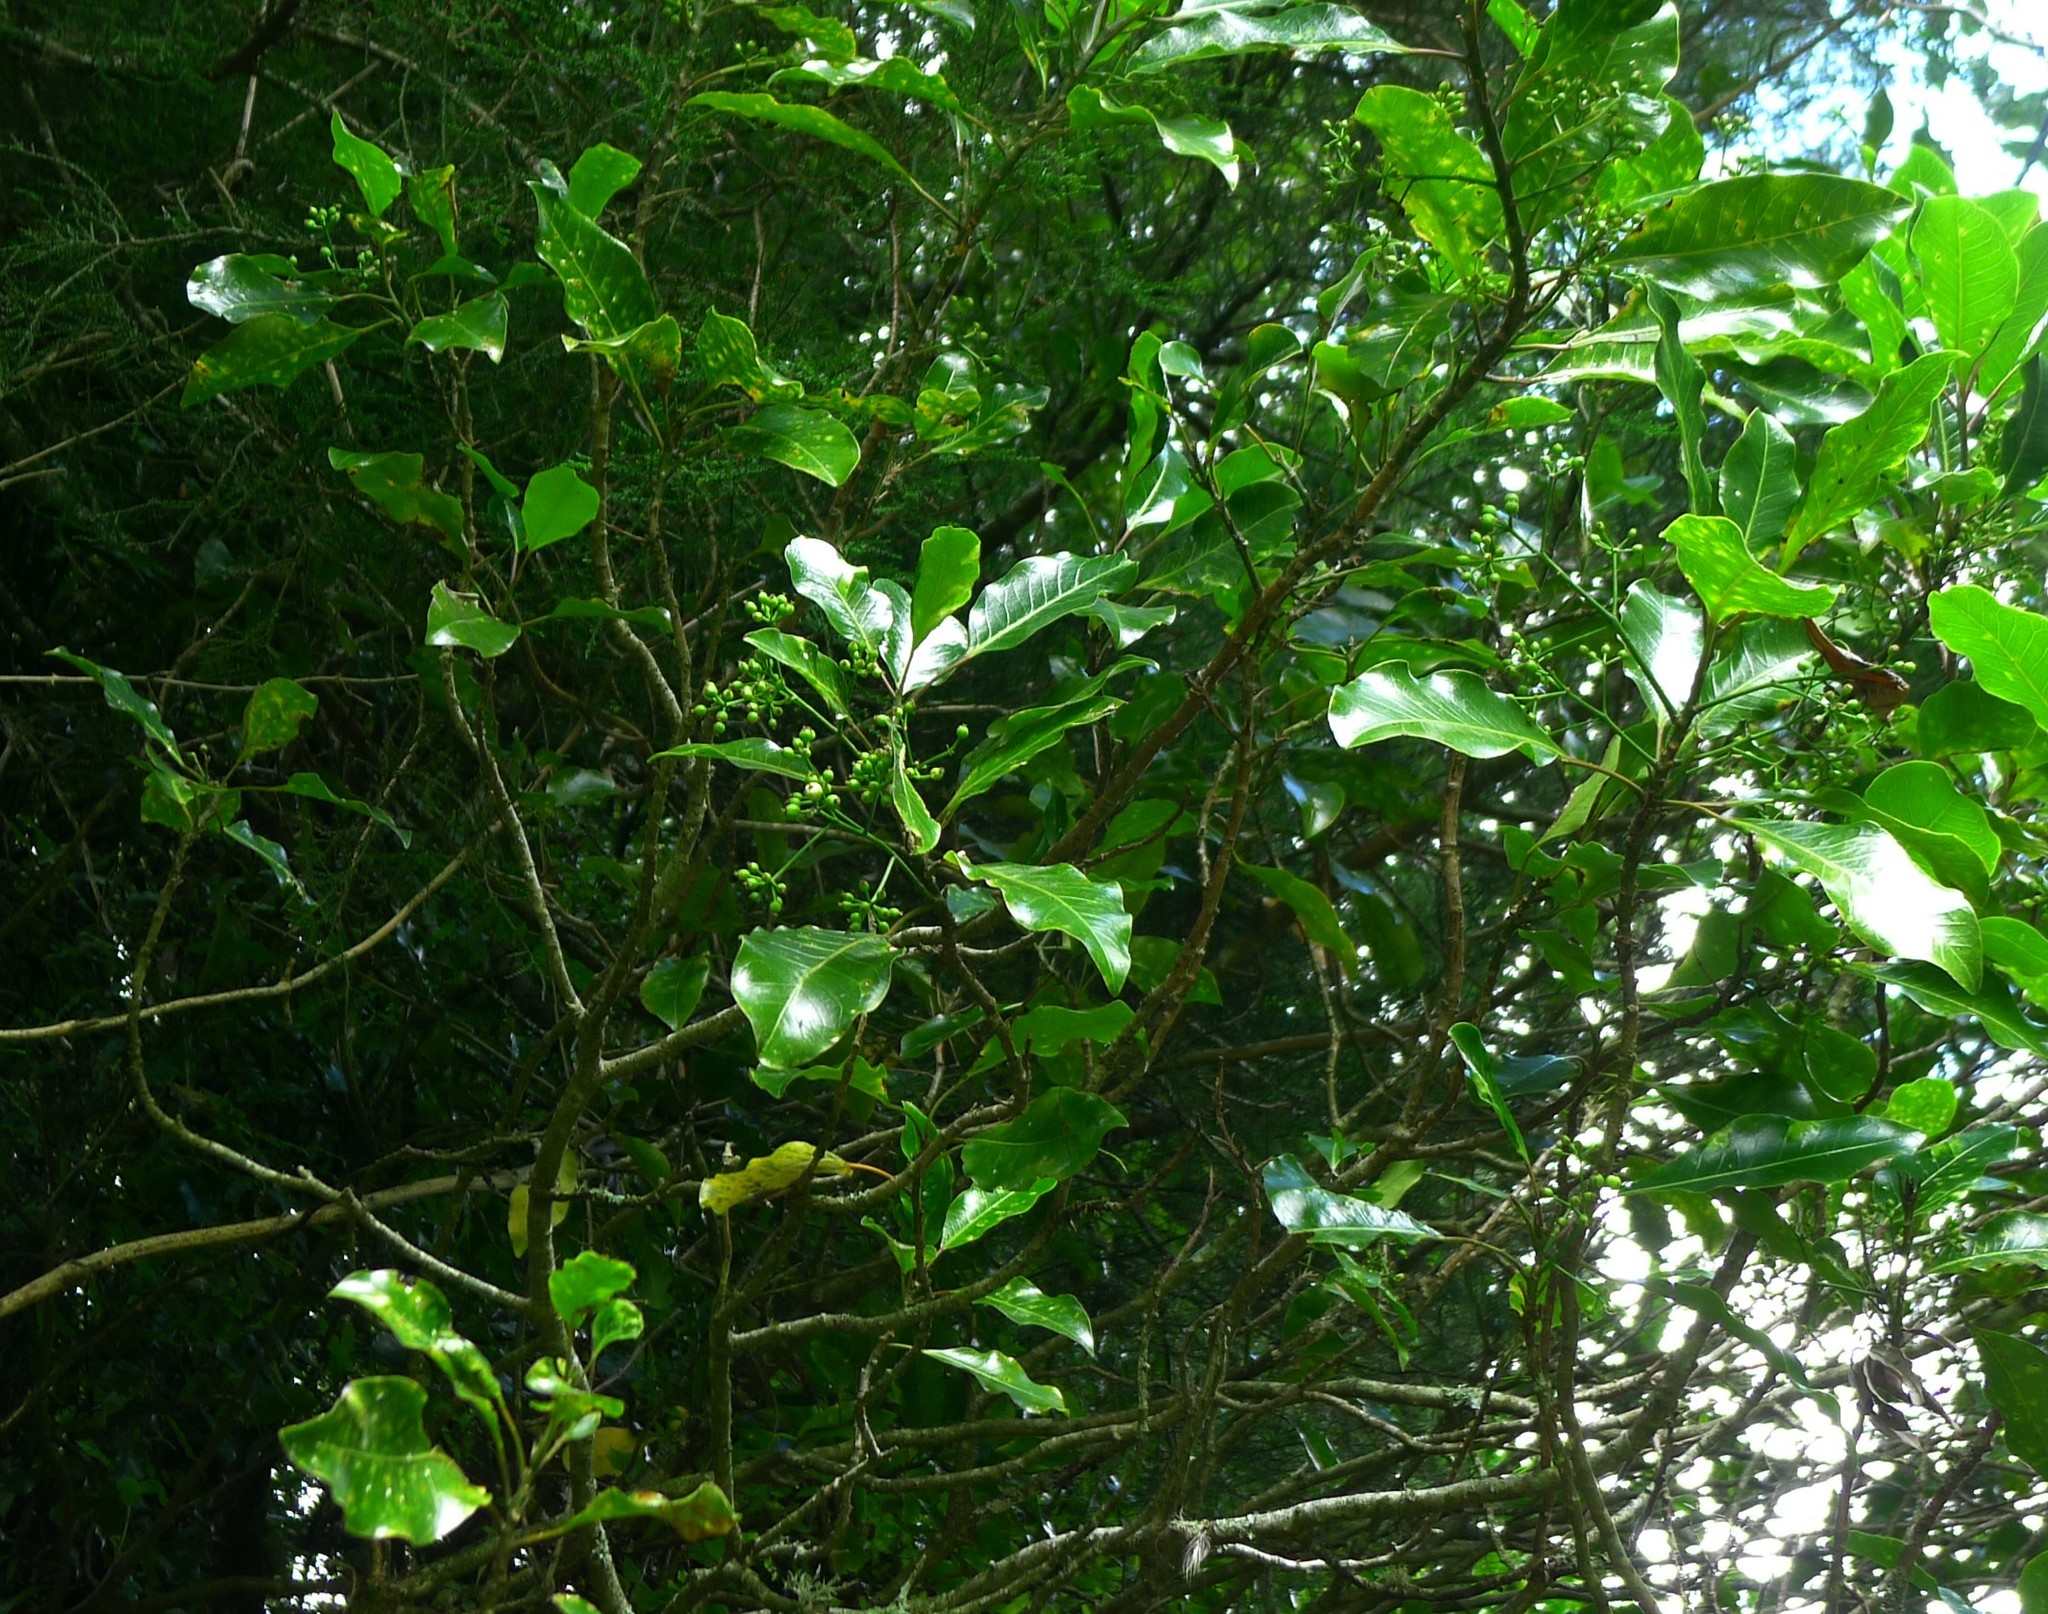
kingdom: Plantae
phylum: Tracheophyta
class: Magnoliopsida
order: Apiales
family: Araliaceae
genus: Raukaua
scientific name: Raukaua edgerleyi
